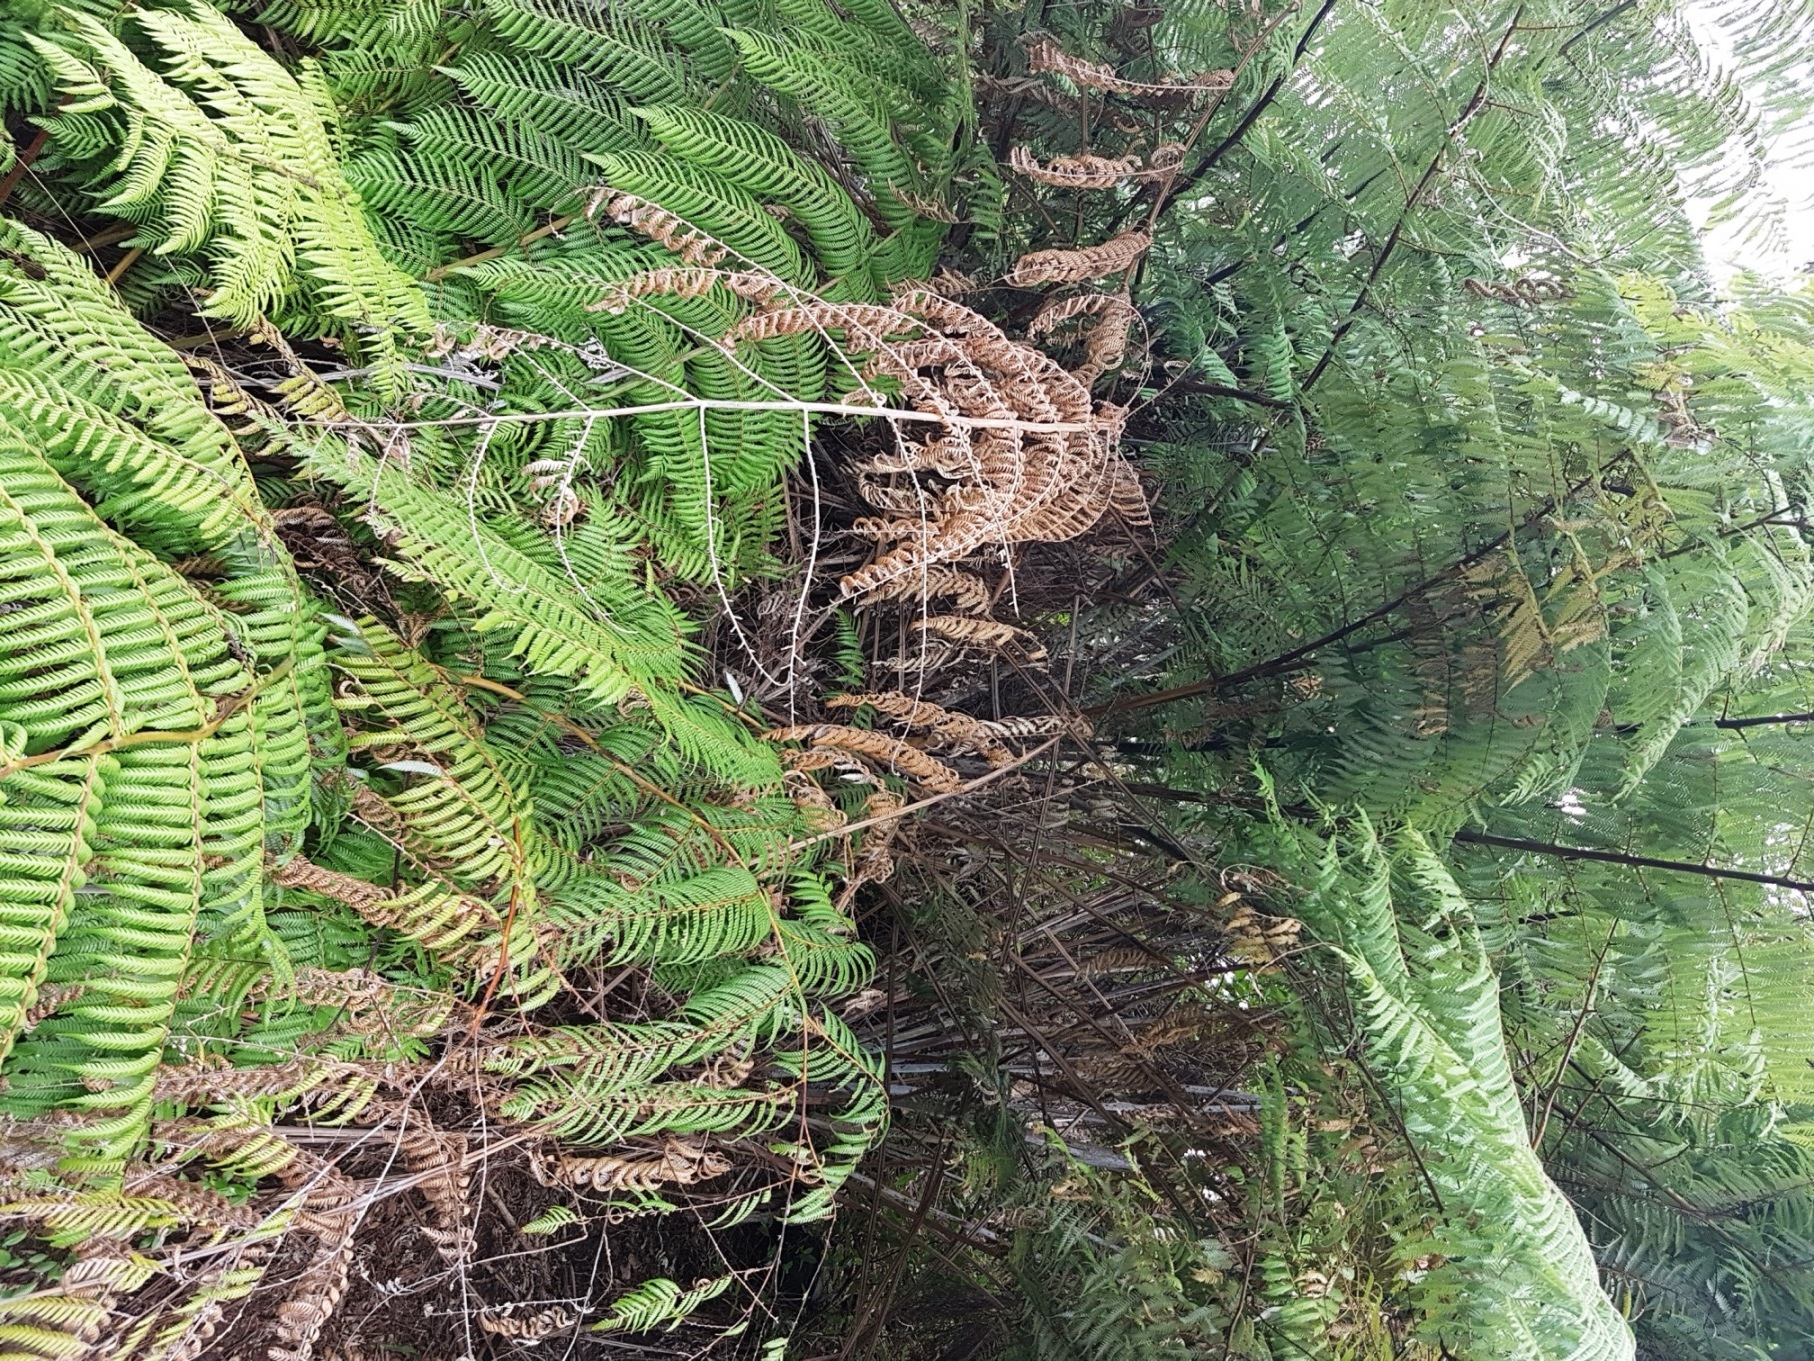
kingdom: Plantae
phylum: Tracheophyta
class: Polypodiopsida
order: Cyatheales
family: Cyatheaceae
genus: Alsophila
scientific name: Alsophila dealbata
